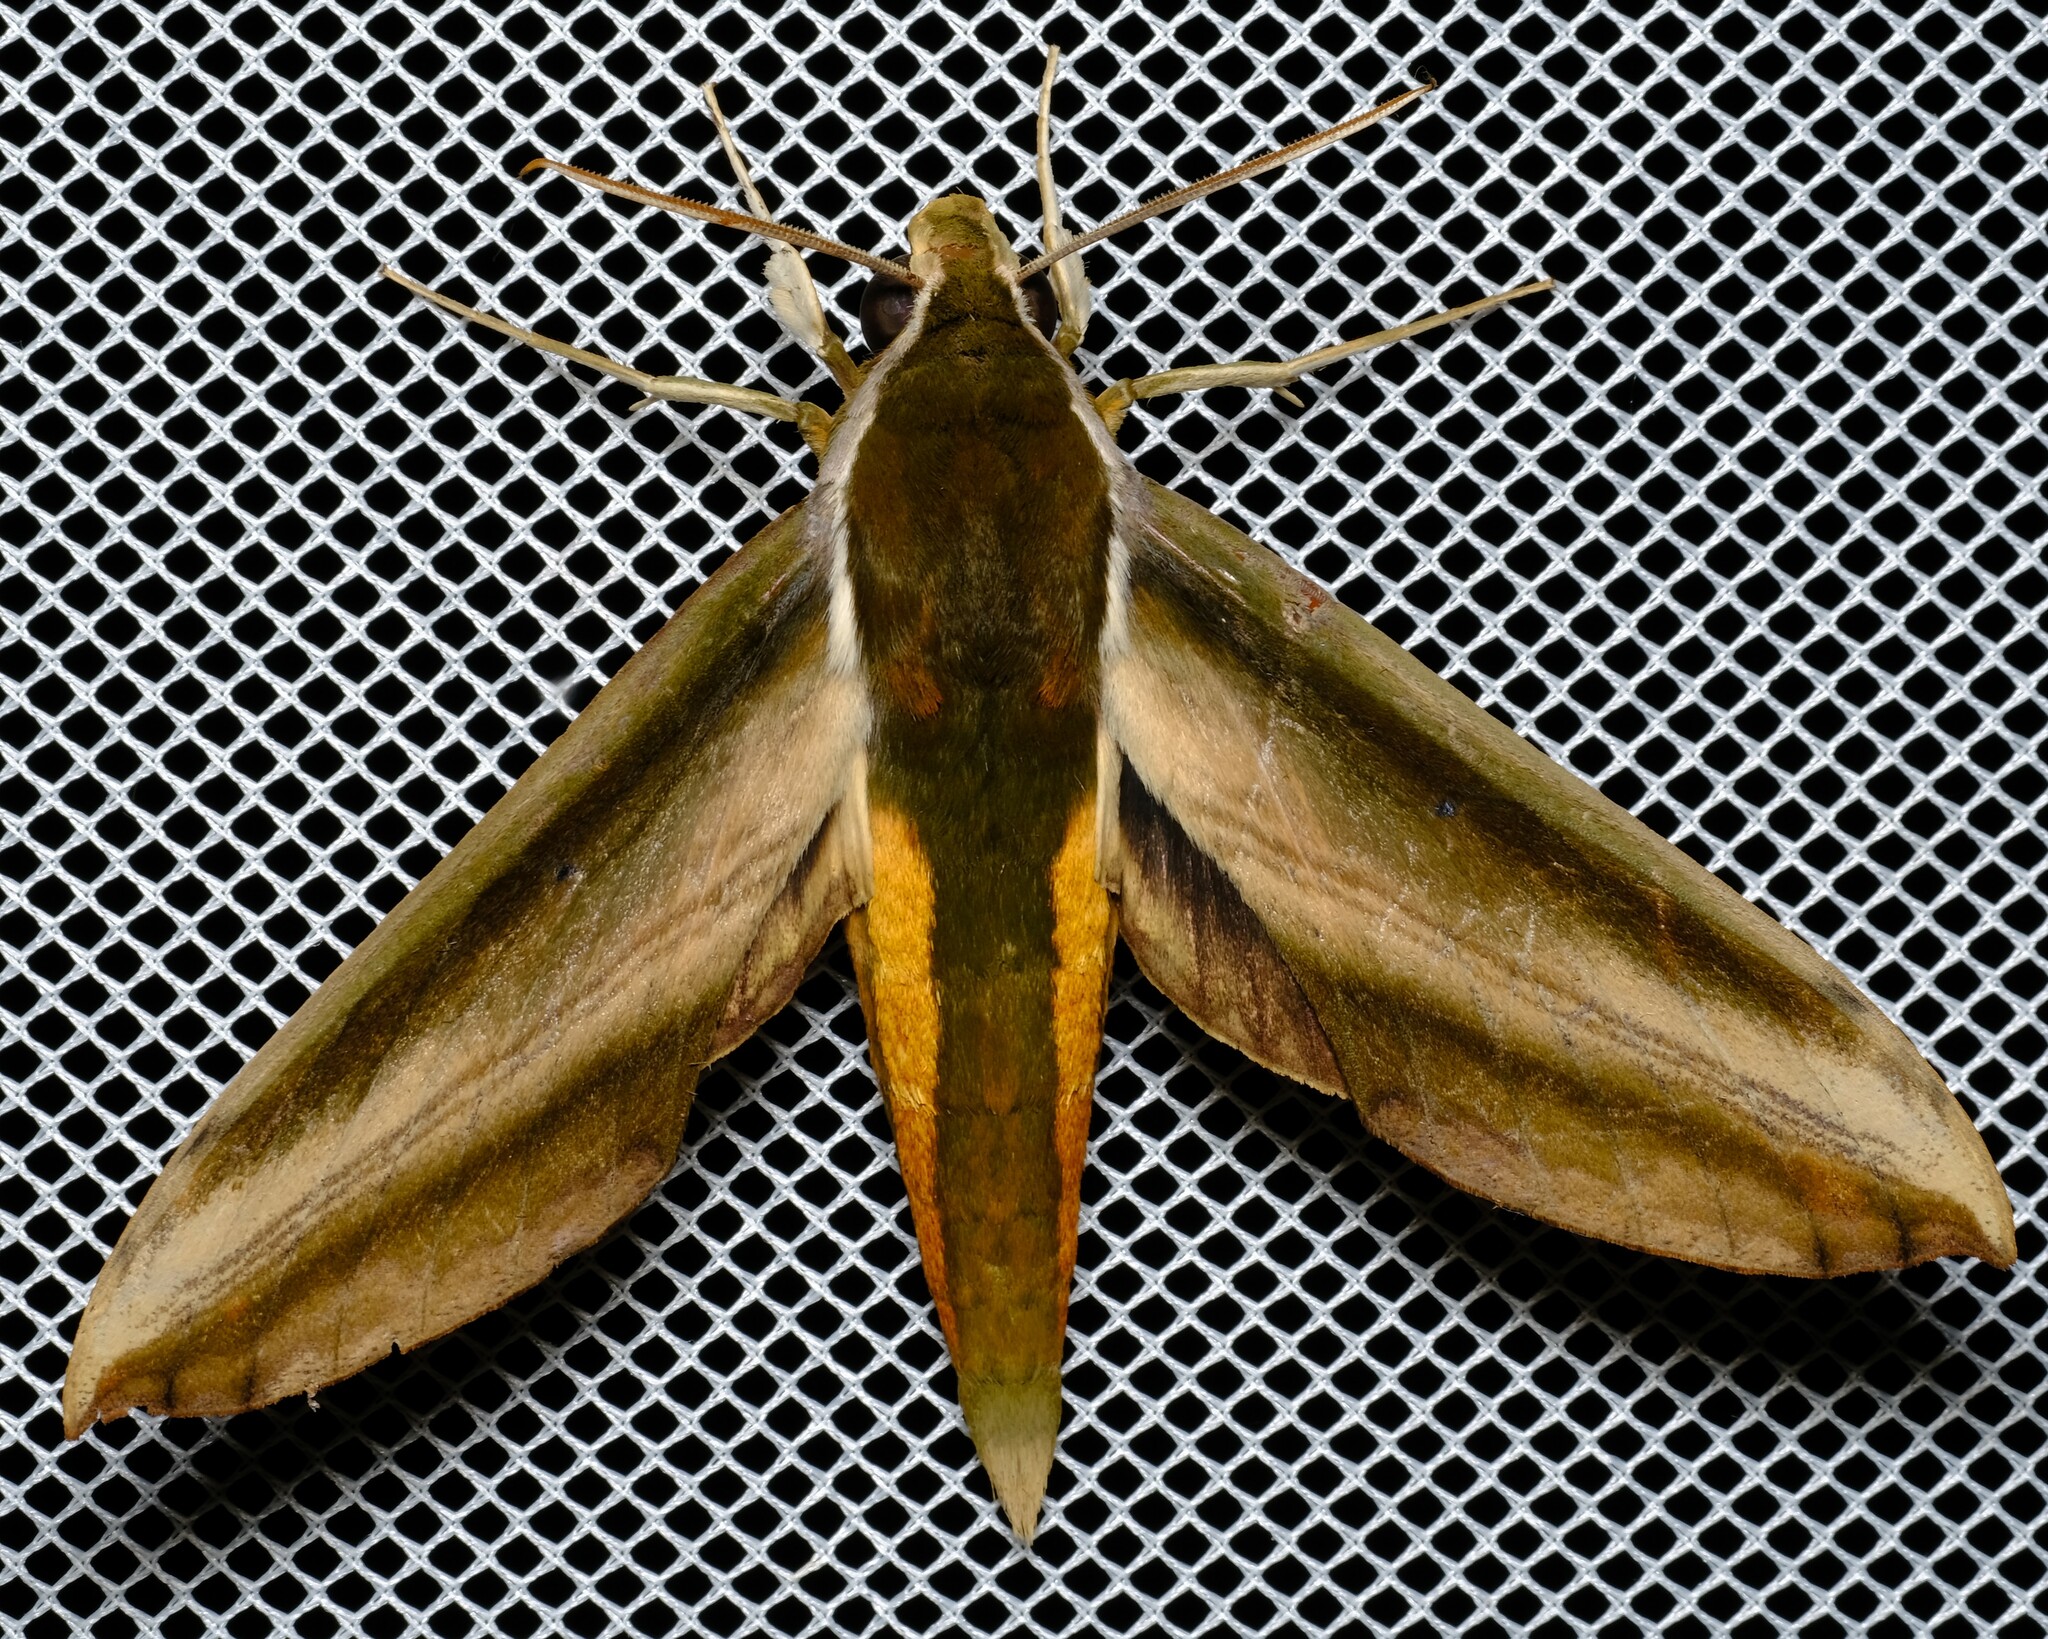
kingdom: Animalia
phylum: Arthropoda
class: Insecta
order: Lepidoptera
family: Sphingidae
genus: Theretra
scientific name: Theretra nessus
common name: Yam hawk moth
